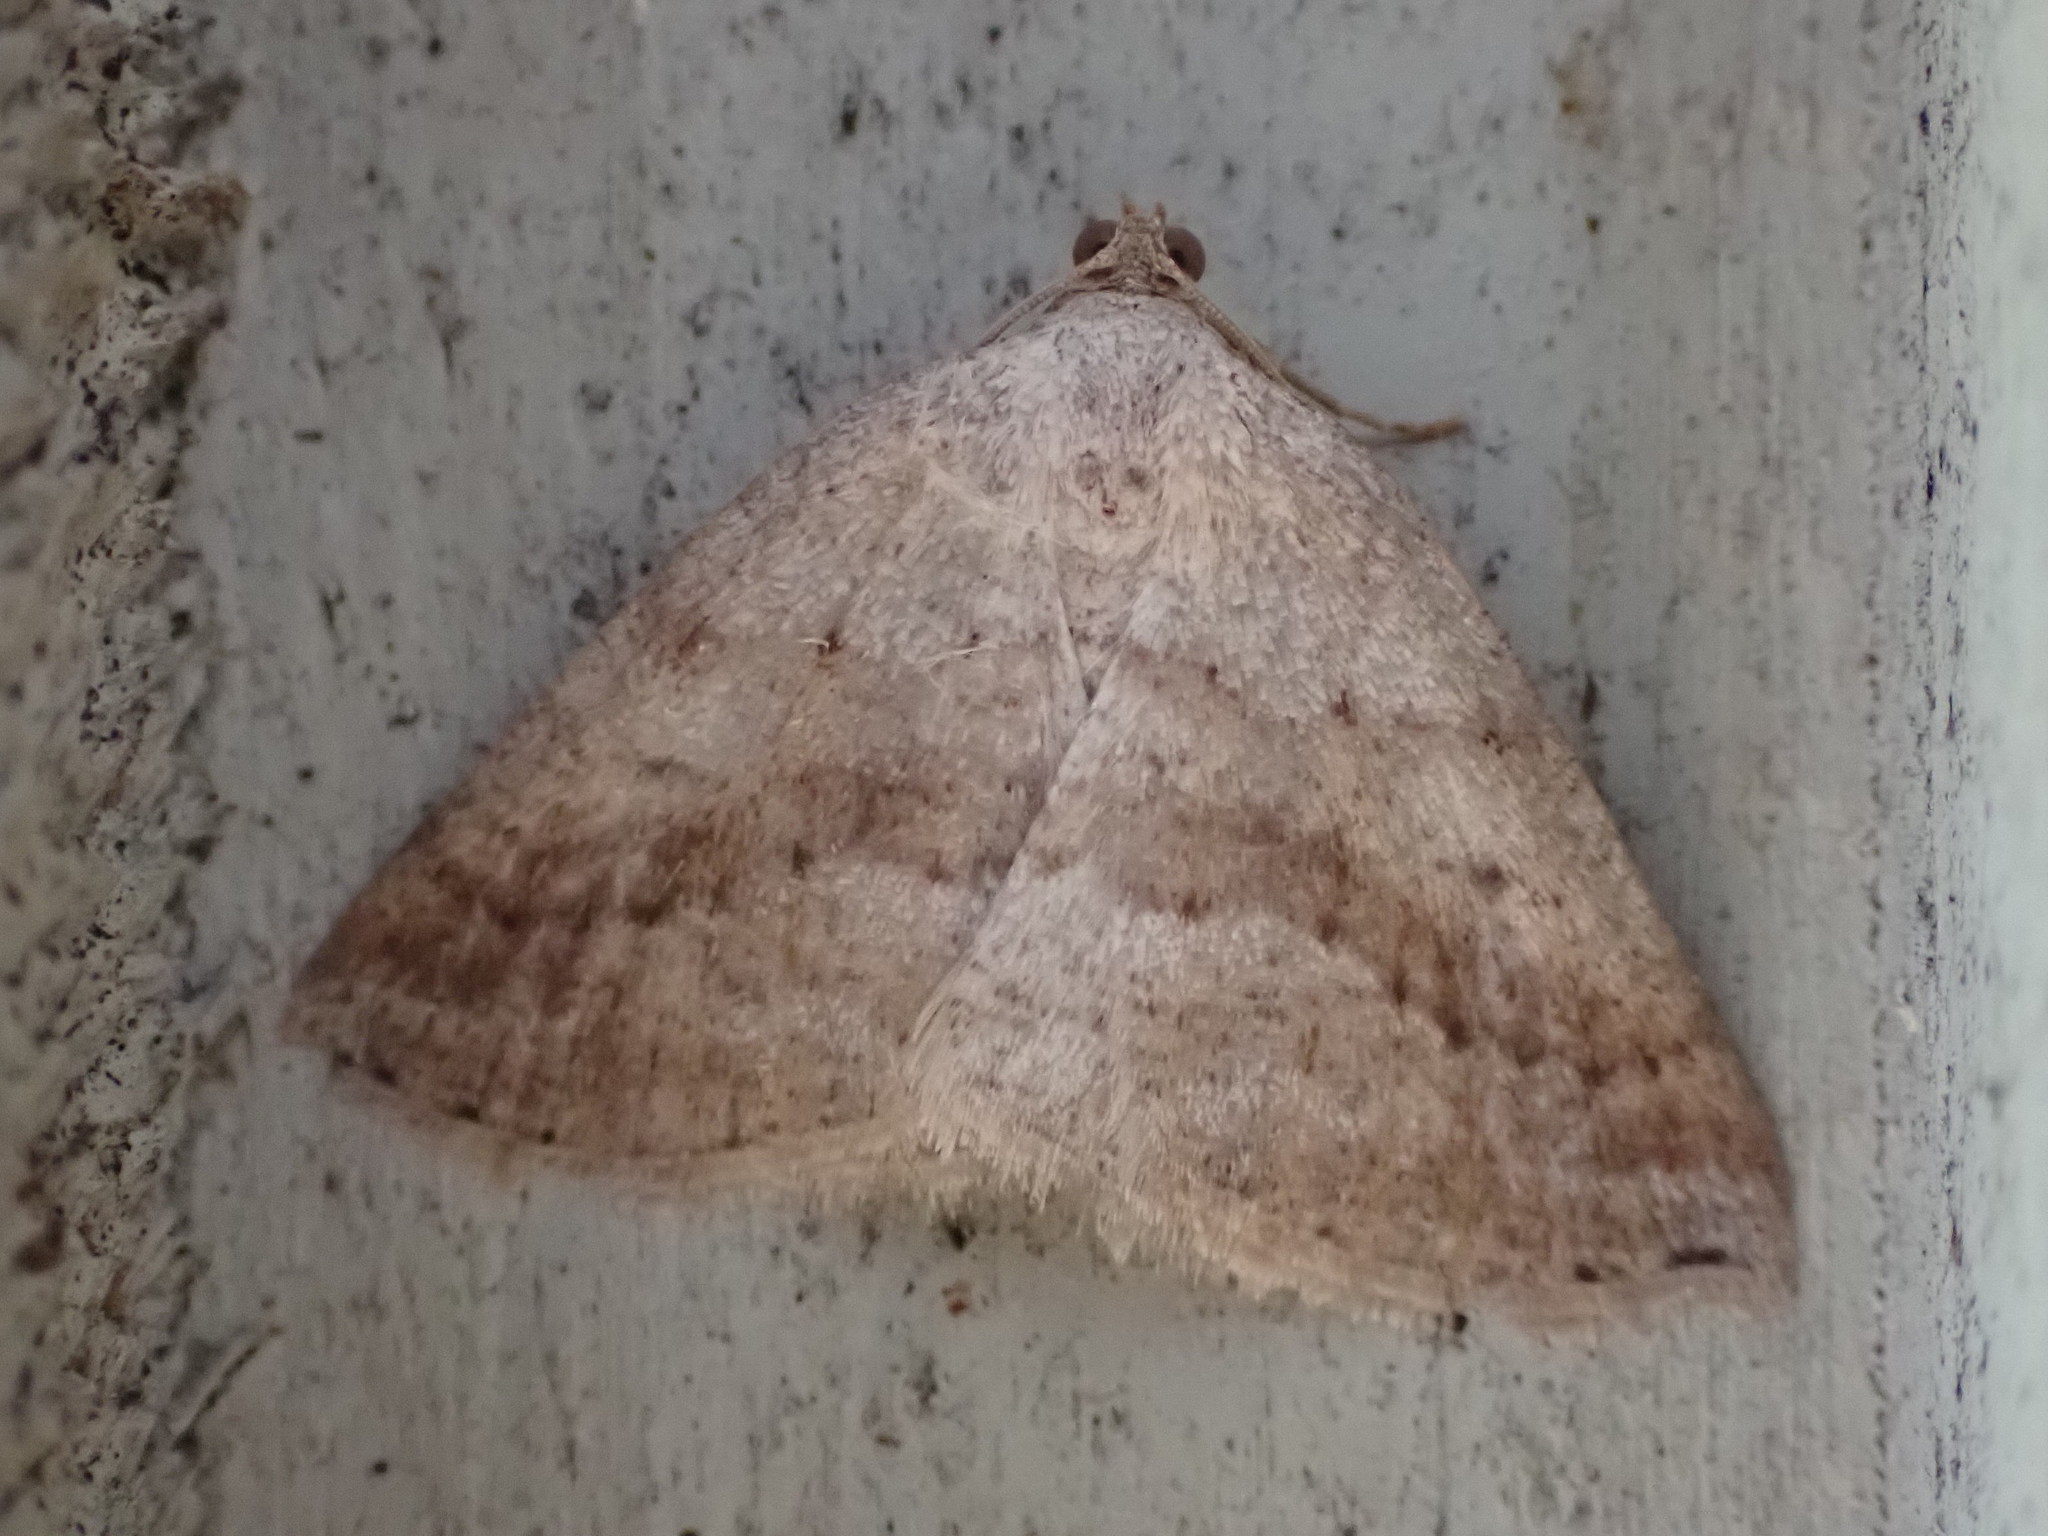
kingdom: Animalia
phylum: Arthropoda
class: Insecta
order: Lepidoptera
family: Geometridae
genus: Tacparia
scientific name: Tacparia detersata
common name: Pale alder moth
